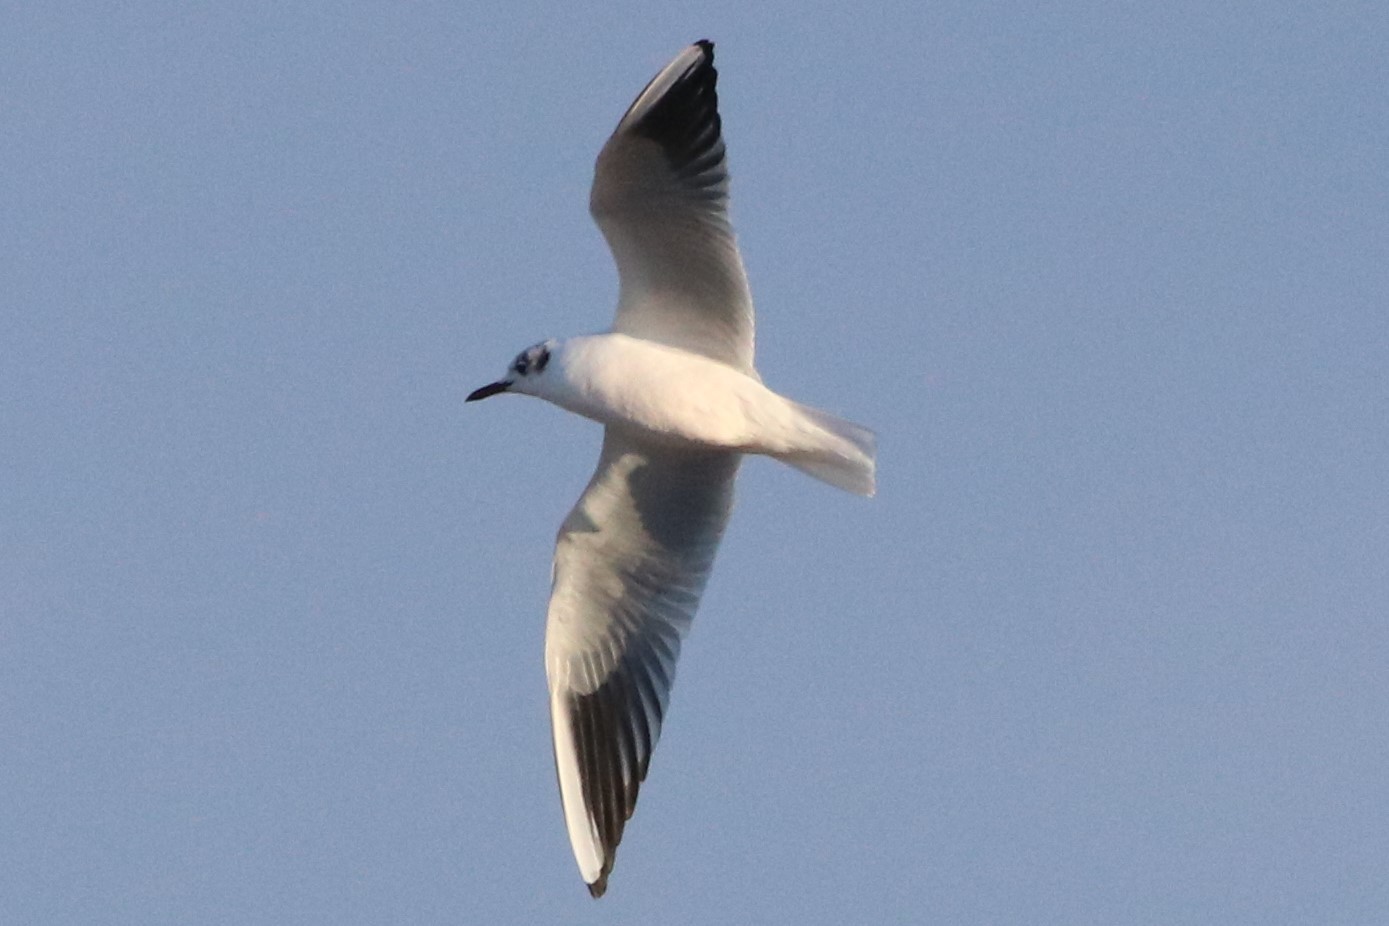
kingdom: Animalia
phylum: Chordata
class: Aves
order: Charadriiformes
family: Laridae
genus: Chroicocephalus
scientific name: Chroicocephalus ridibundus
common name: Black-headed gull
